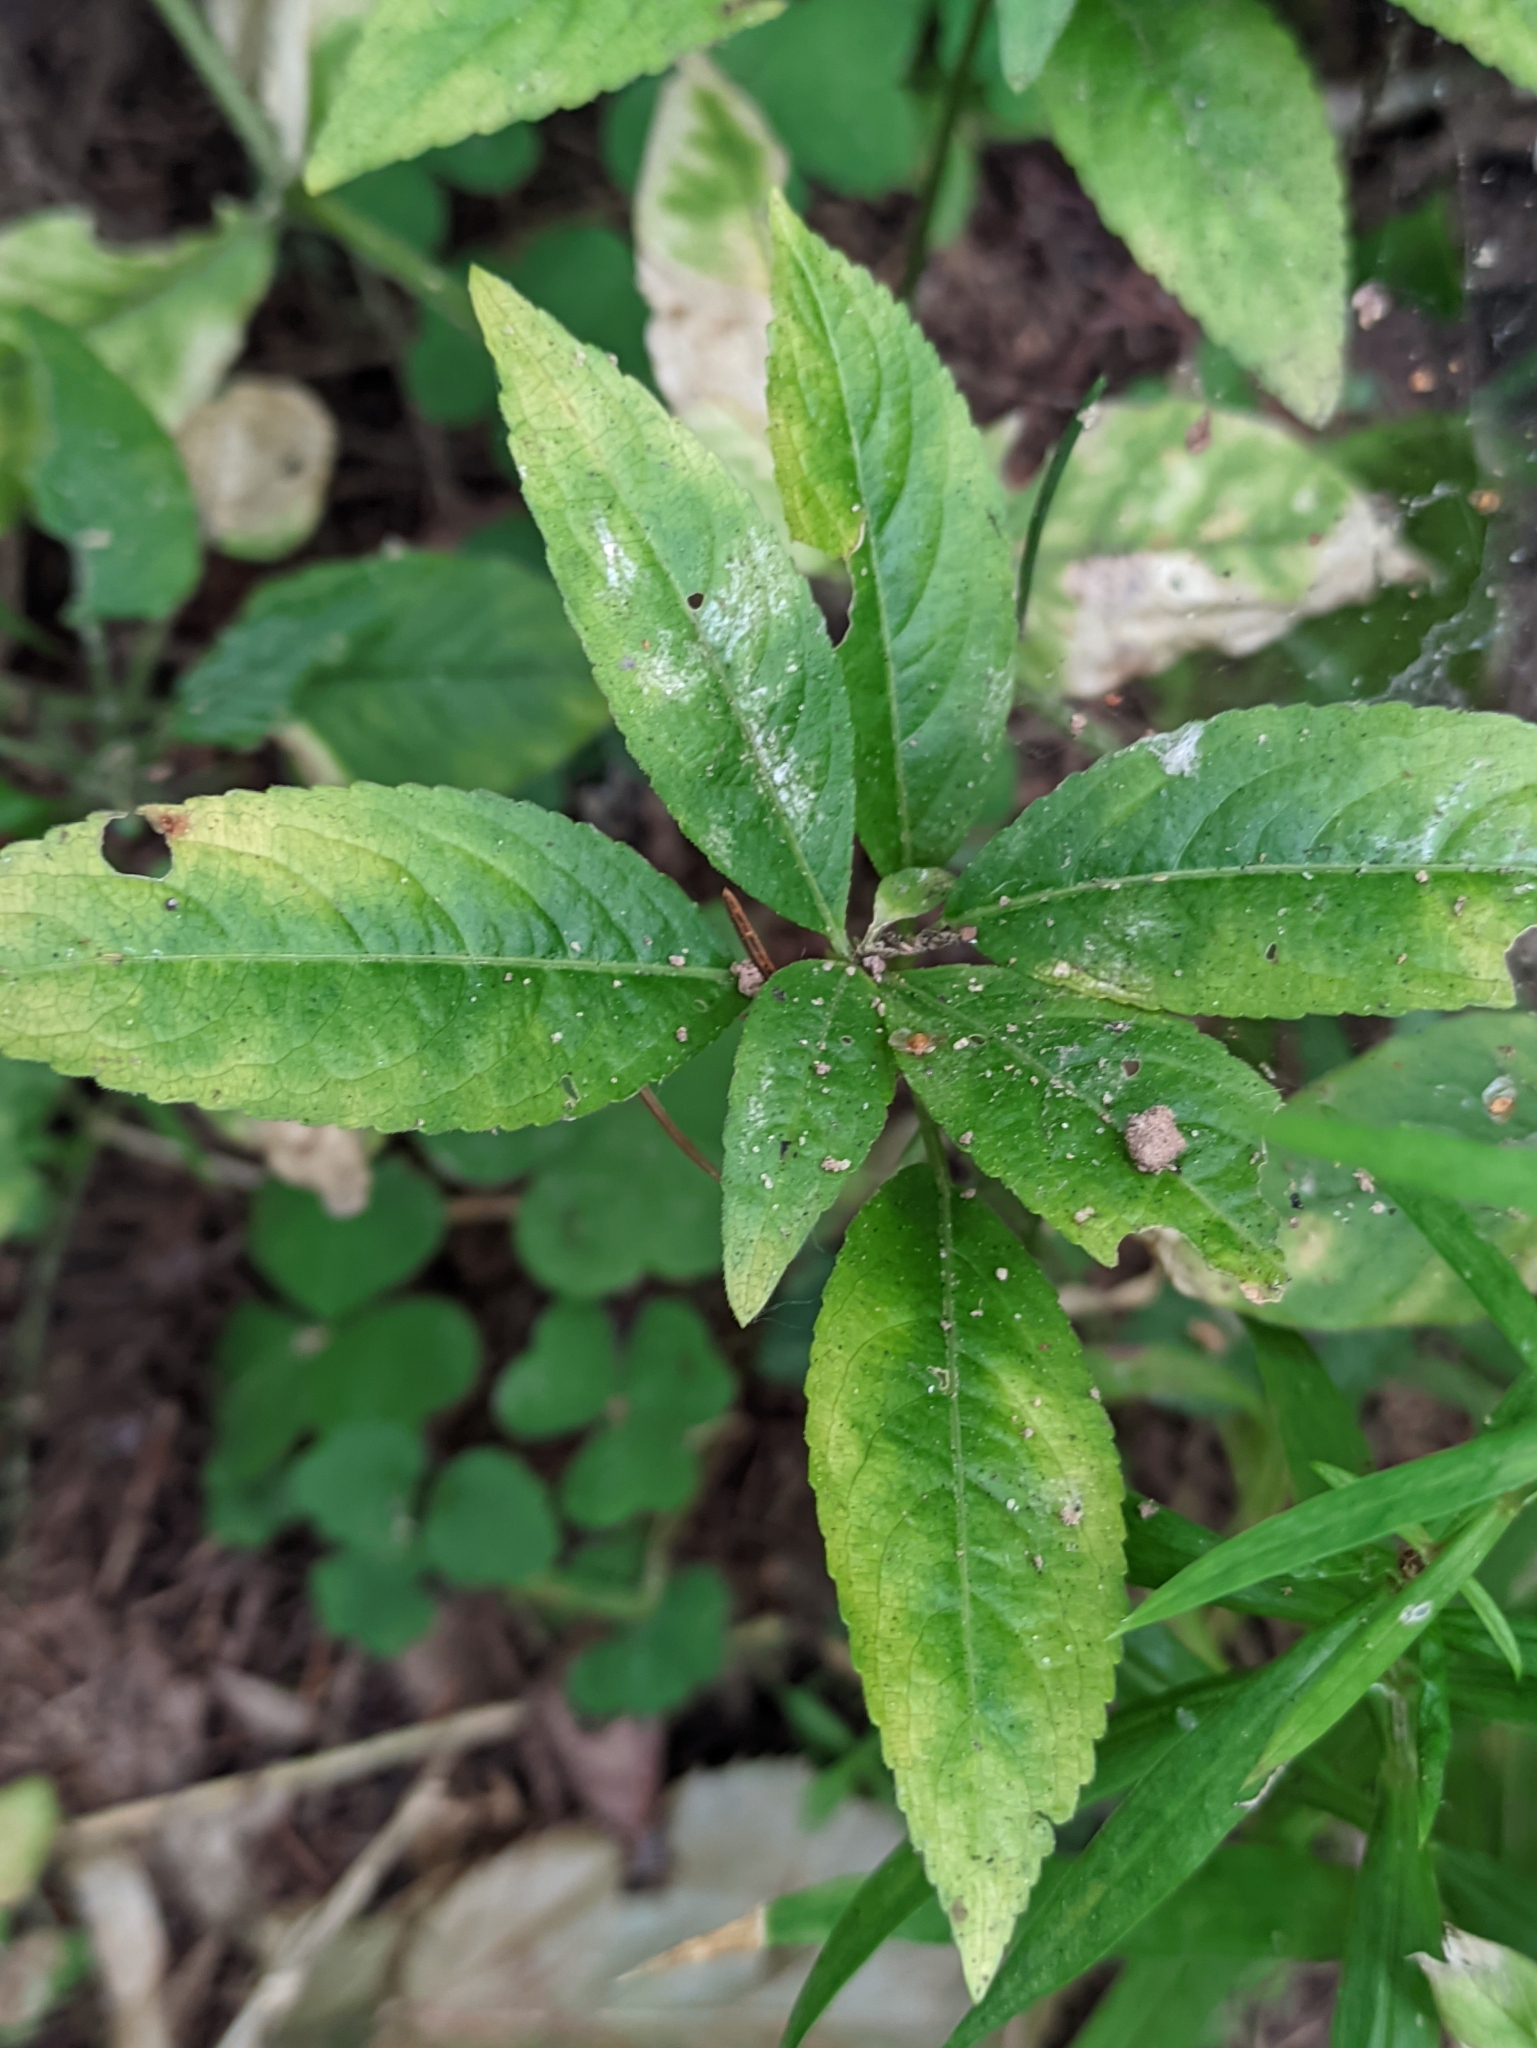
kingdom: Plantae
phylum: Tracheophyta
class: Magnoliopsida
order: Malpighiales
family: Euphorbiaceae
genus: Mercurialis
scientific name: Mercurialis perennis
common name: Dog mercury
